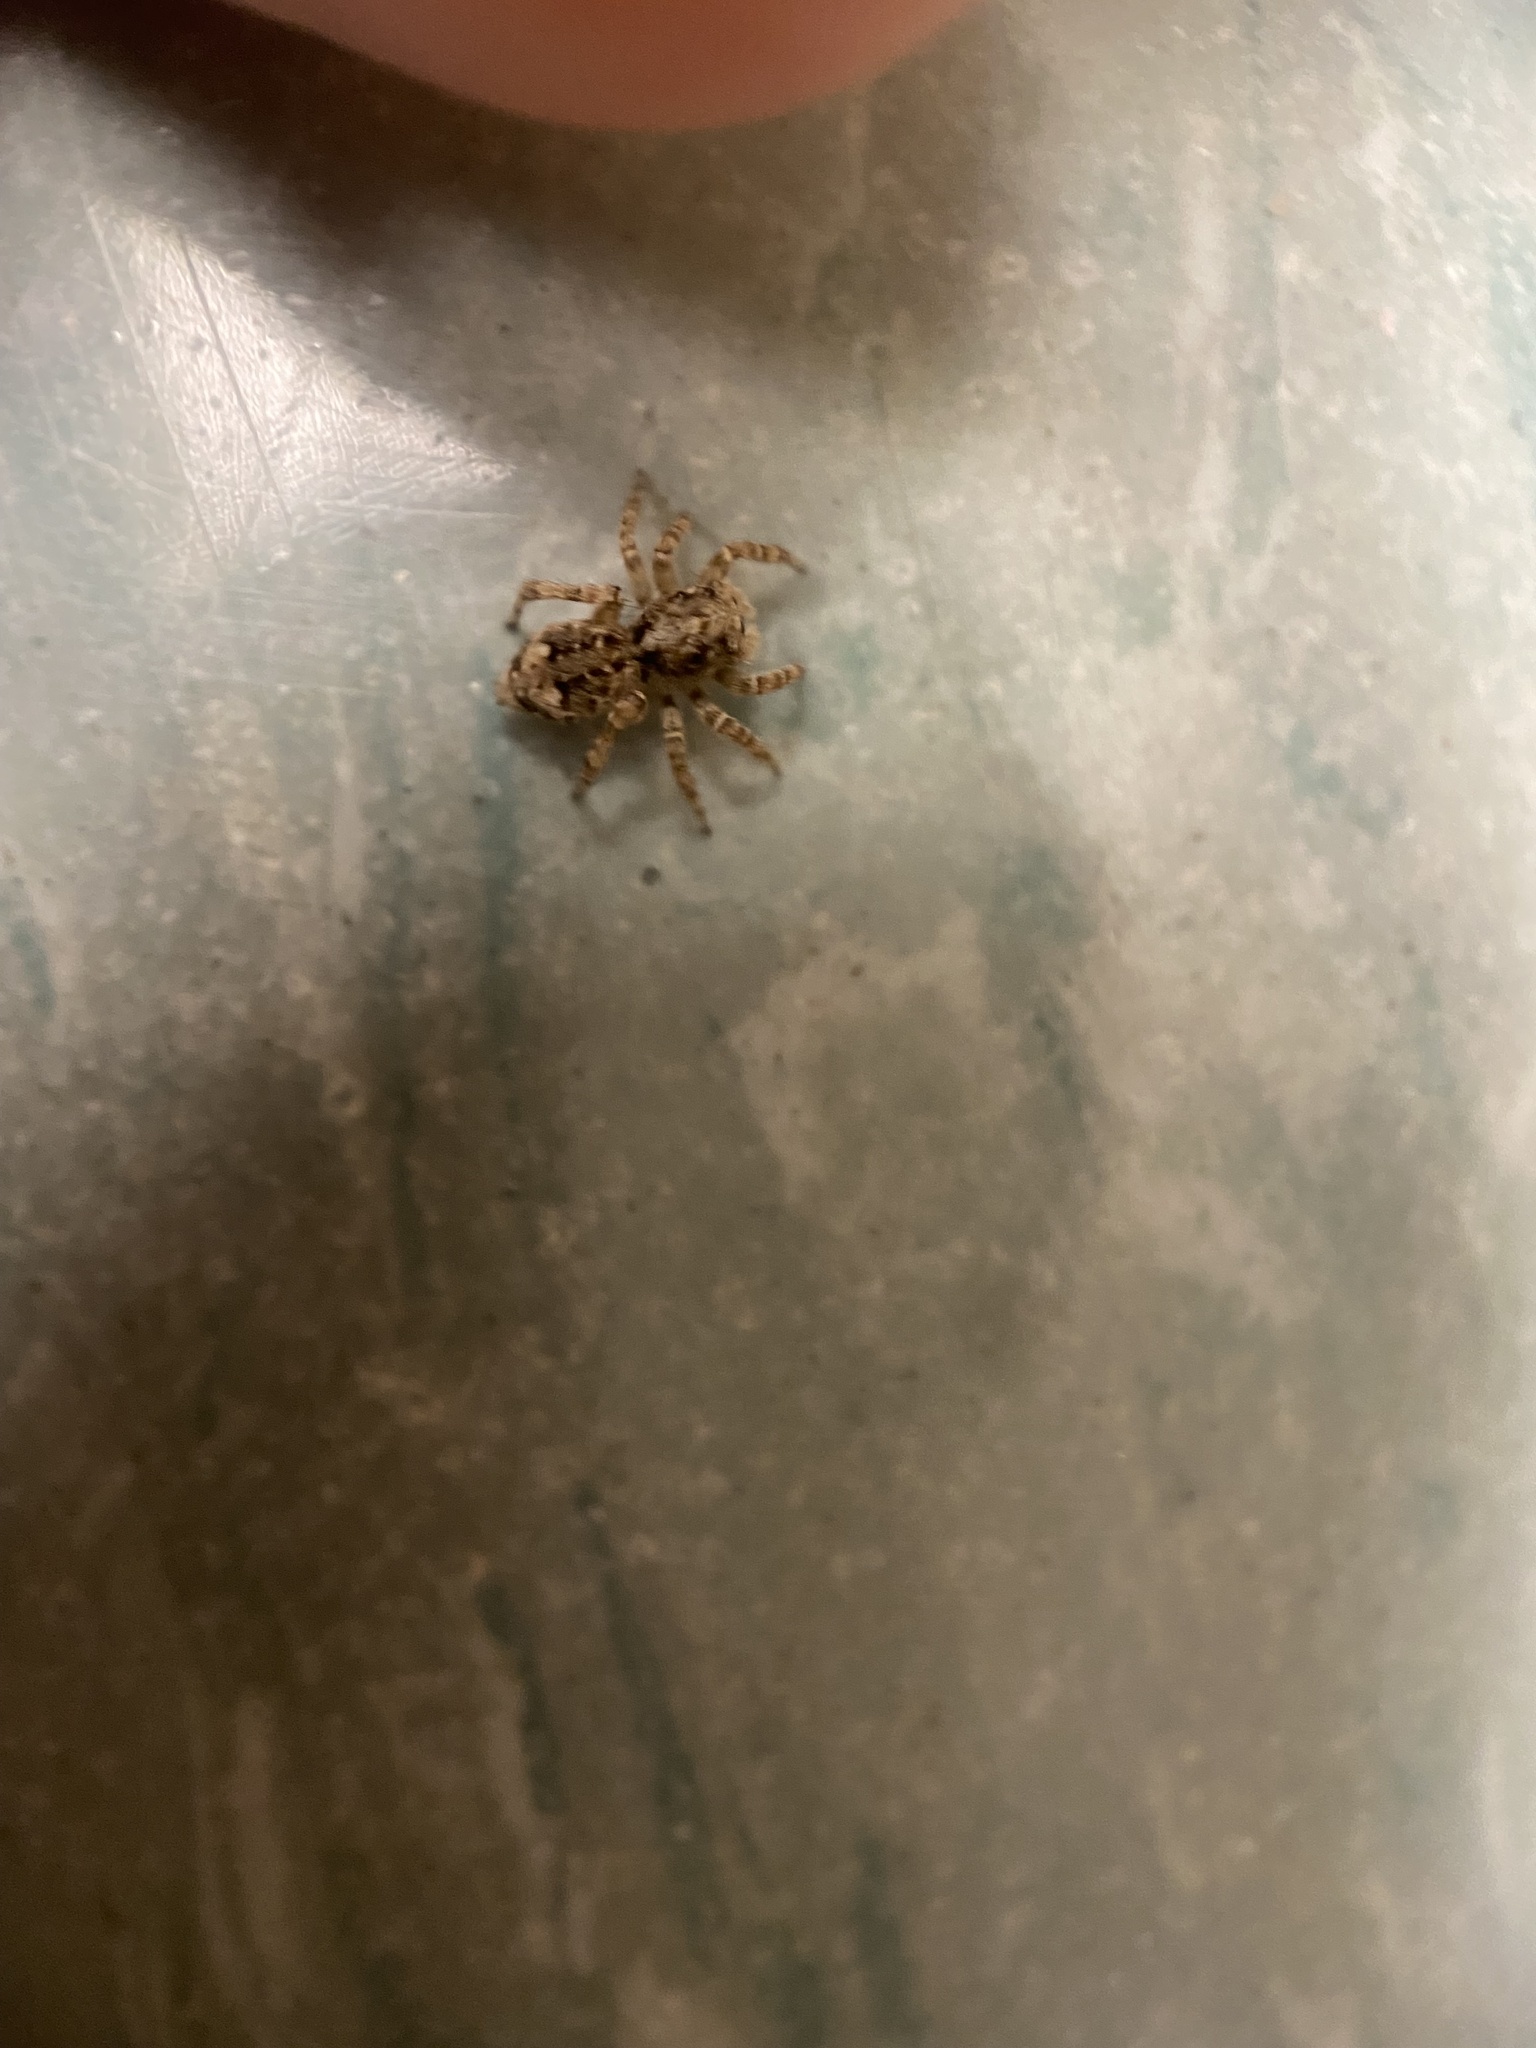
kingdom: Animalia
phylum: Arthropoda
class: Arachnida
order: Araneae
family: Salticidae
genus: Attulus
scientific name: Attulus fasciger
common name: Asiatic wall jumping spider
